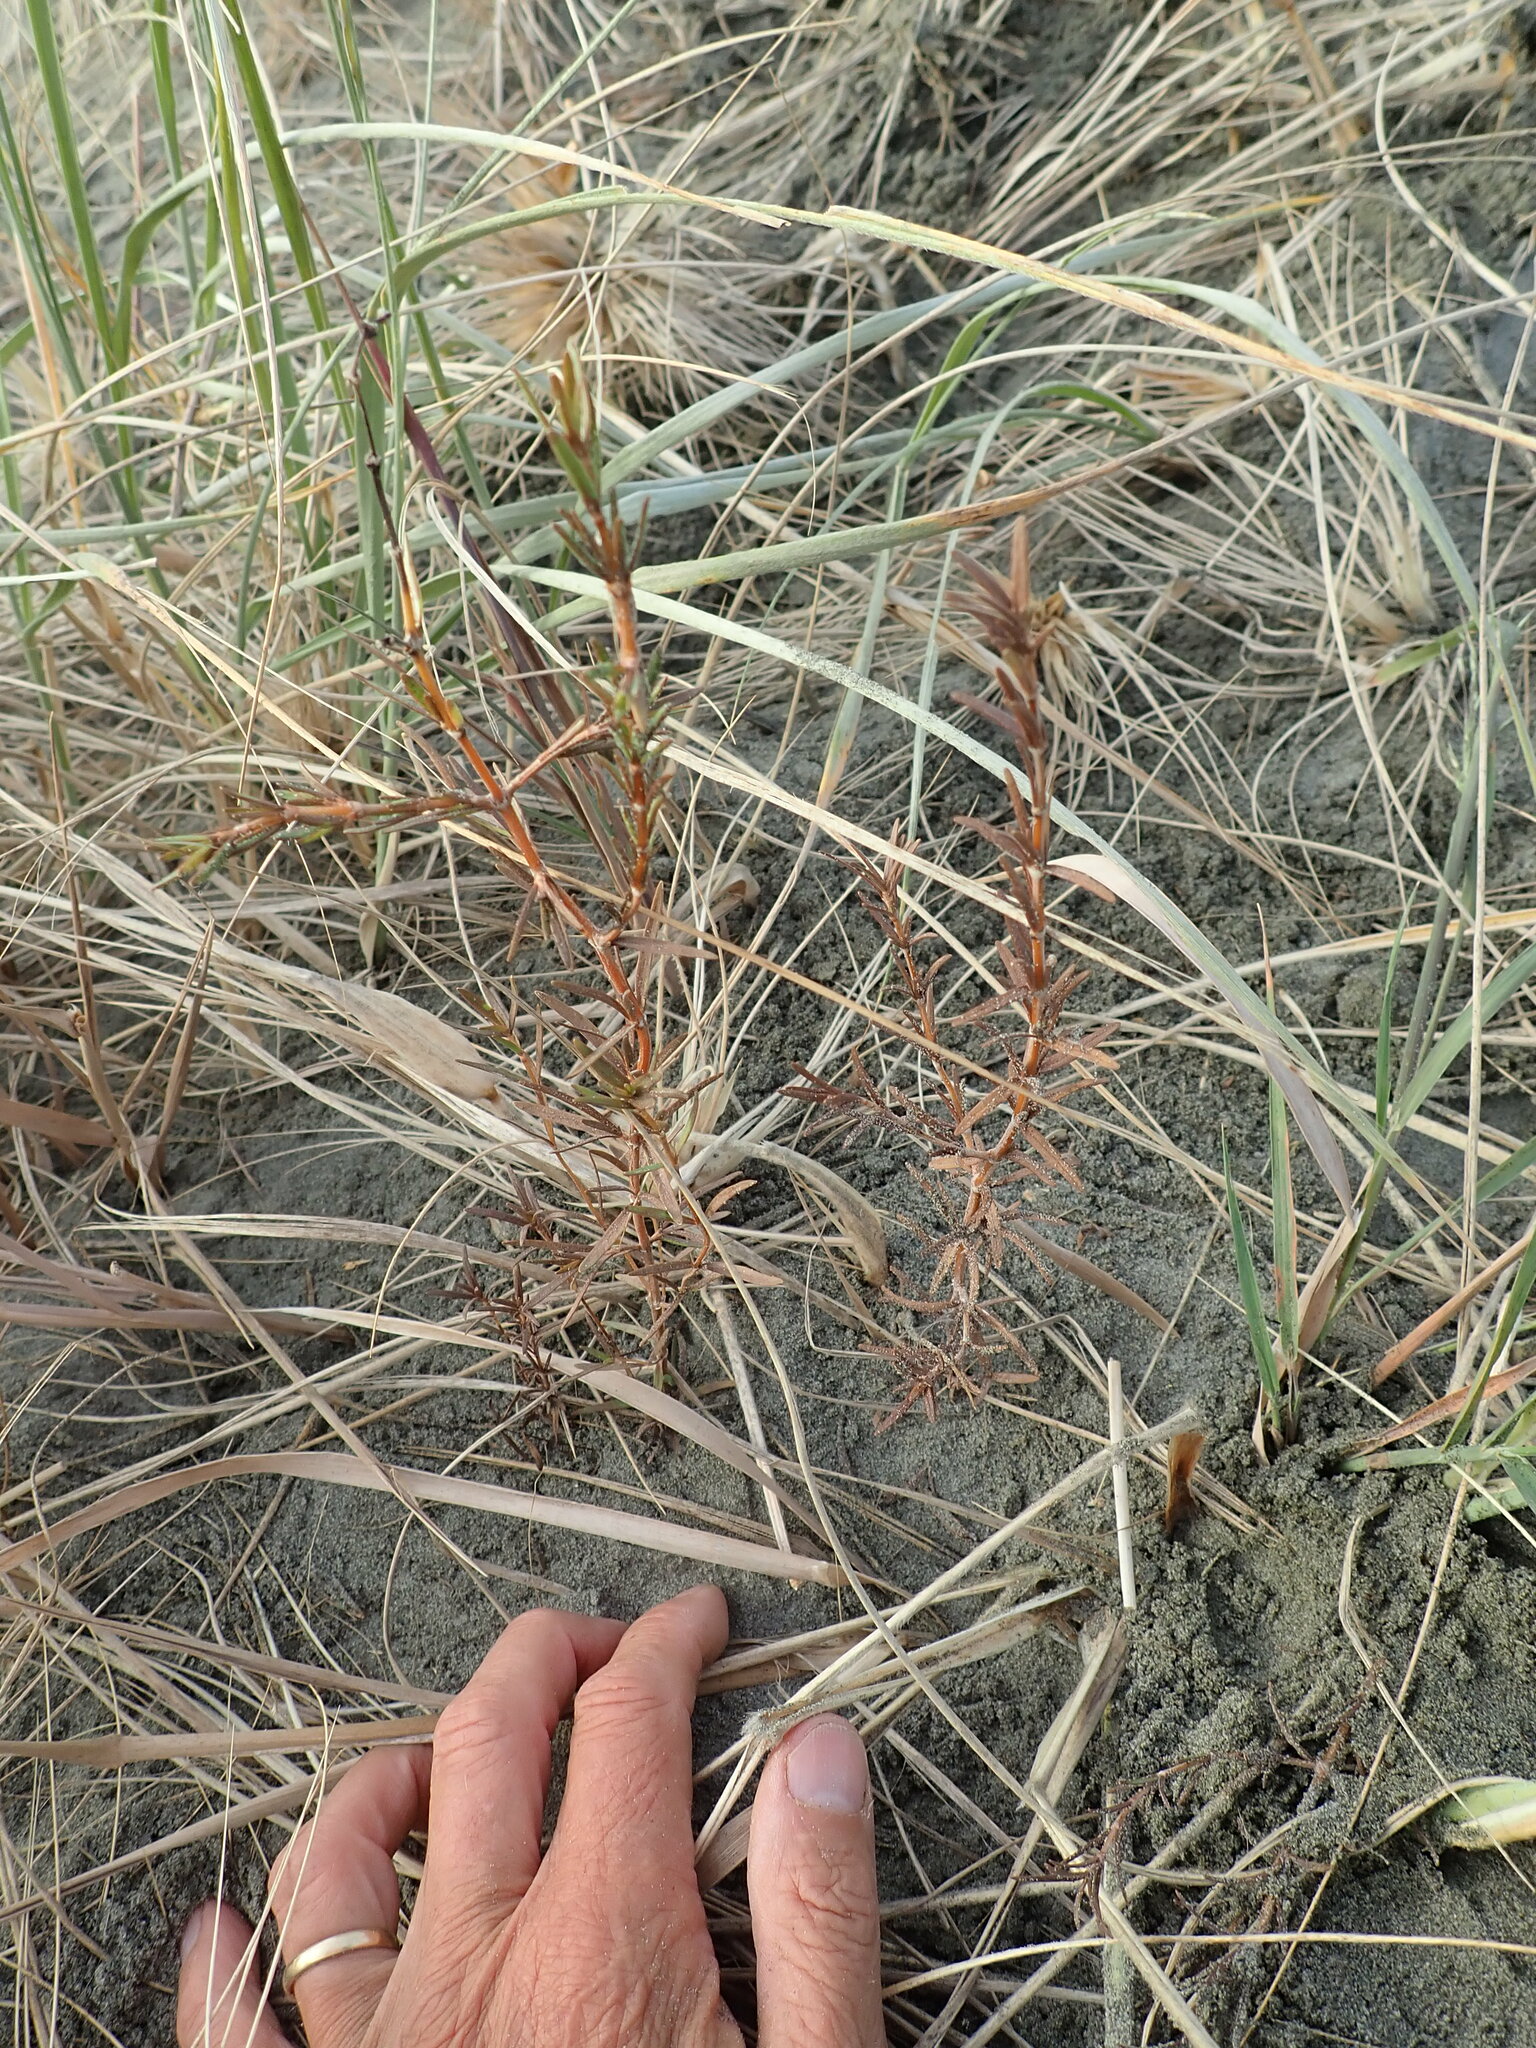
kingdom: Plantae
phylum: Tracheophyta
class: Magnoliopsida
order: Gentianales
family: Rubiaceae
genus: Coprosma
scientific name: Coprosma acerosa
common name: Sand coprosma
